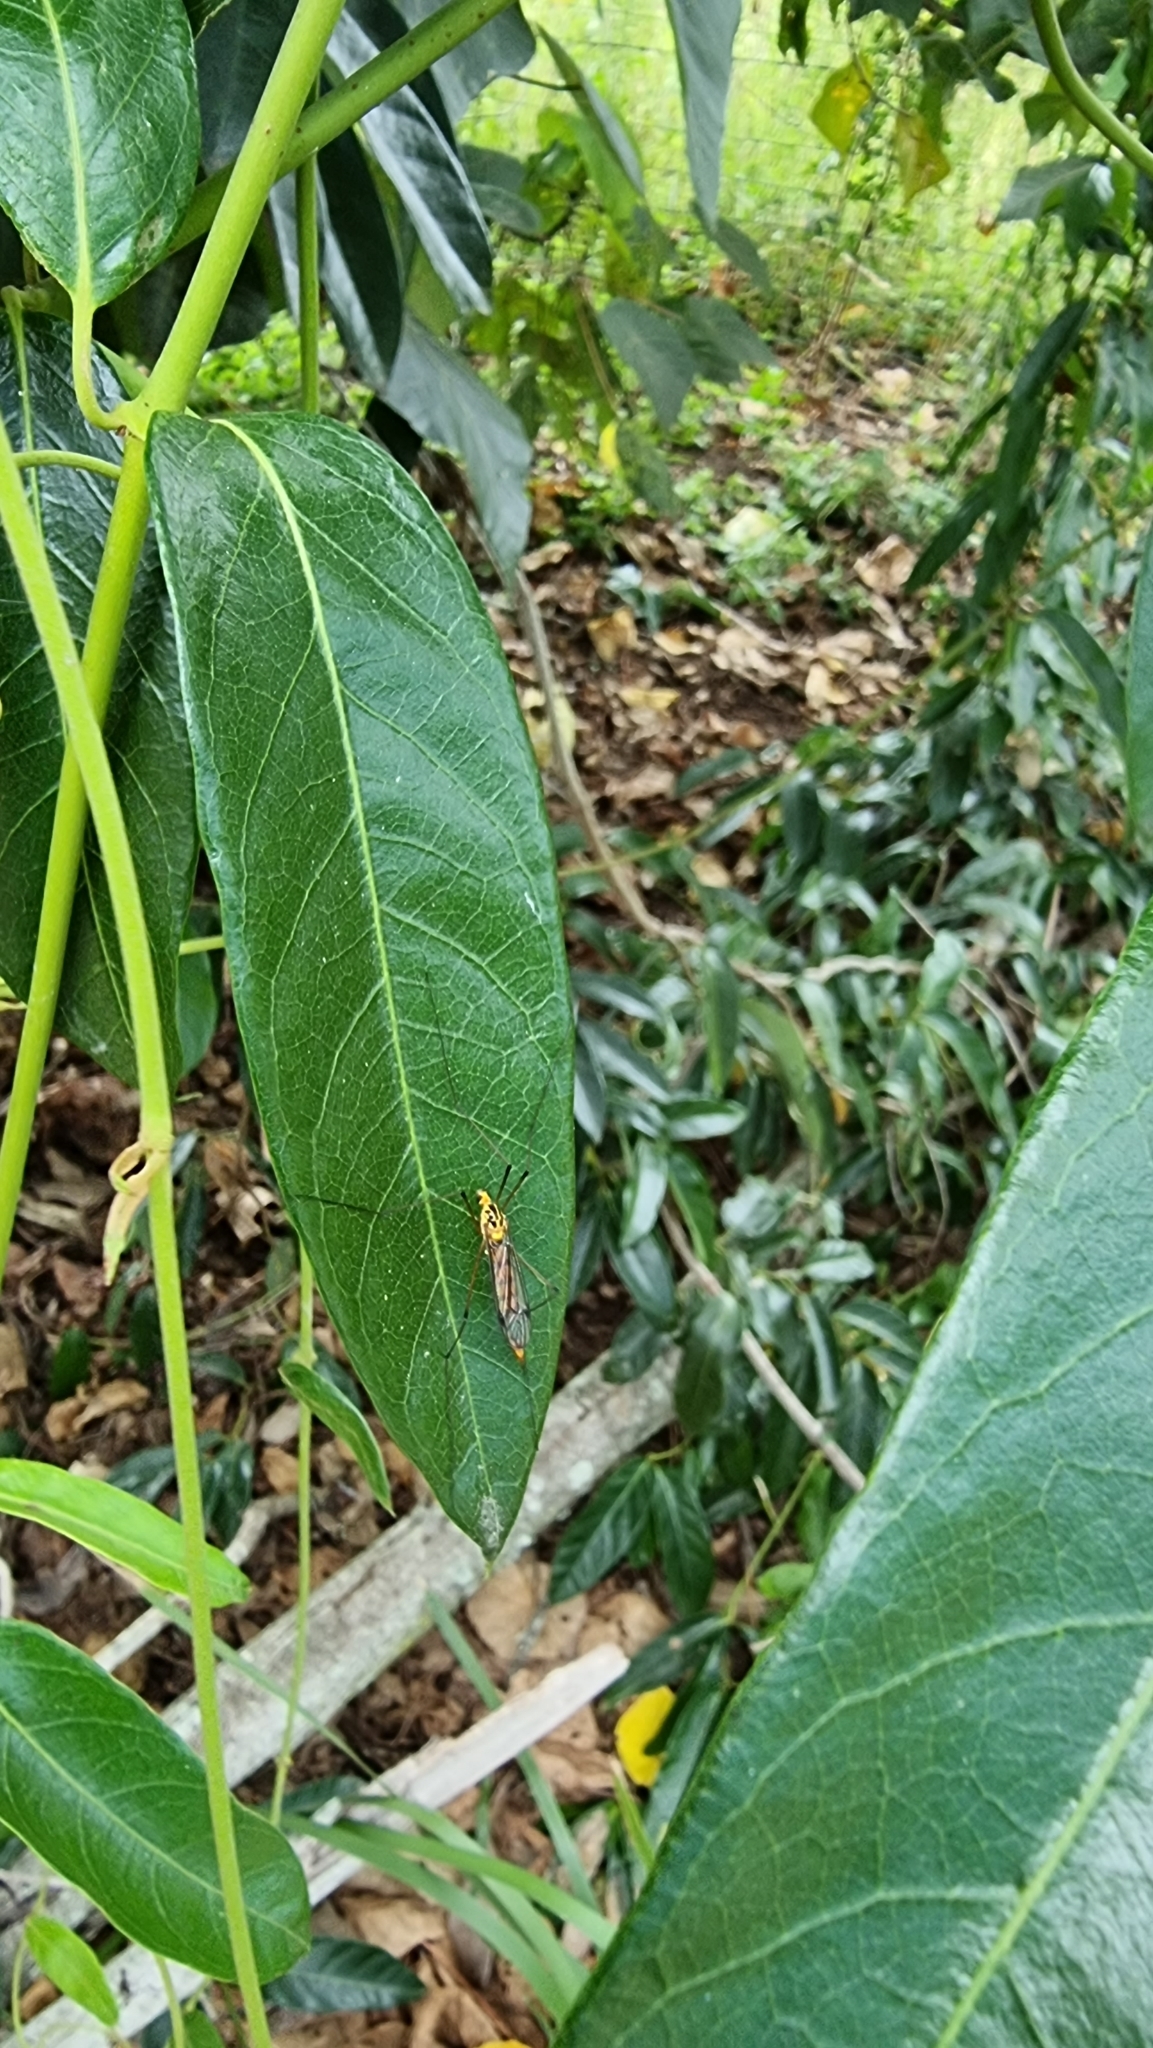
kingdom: Animalia
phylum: Arthropoda
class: Insecta
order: Diptera
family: Tipulidae
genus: Nephrotoma
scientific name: Nephrotoma australasiae
